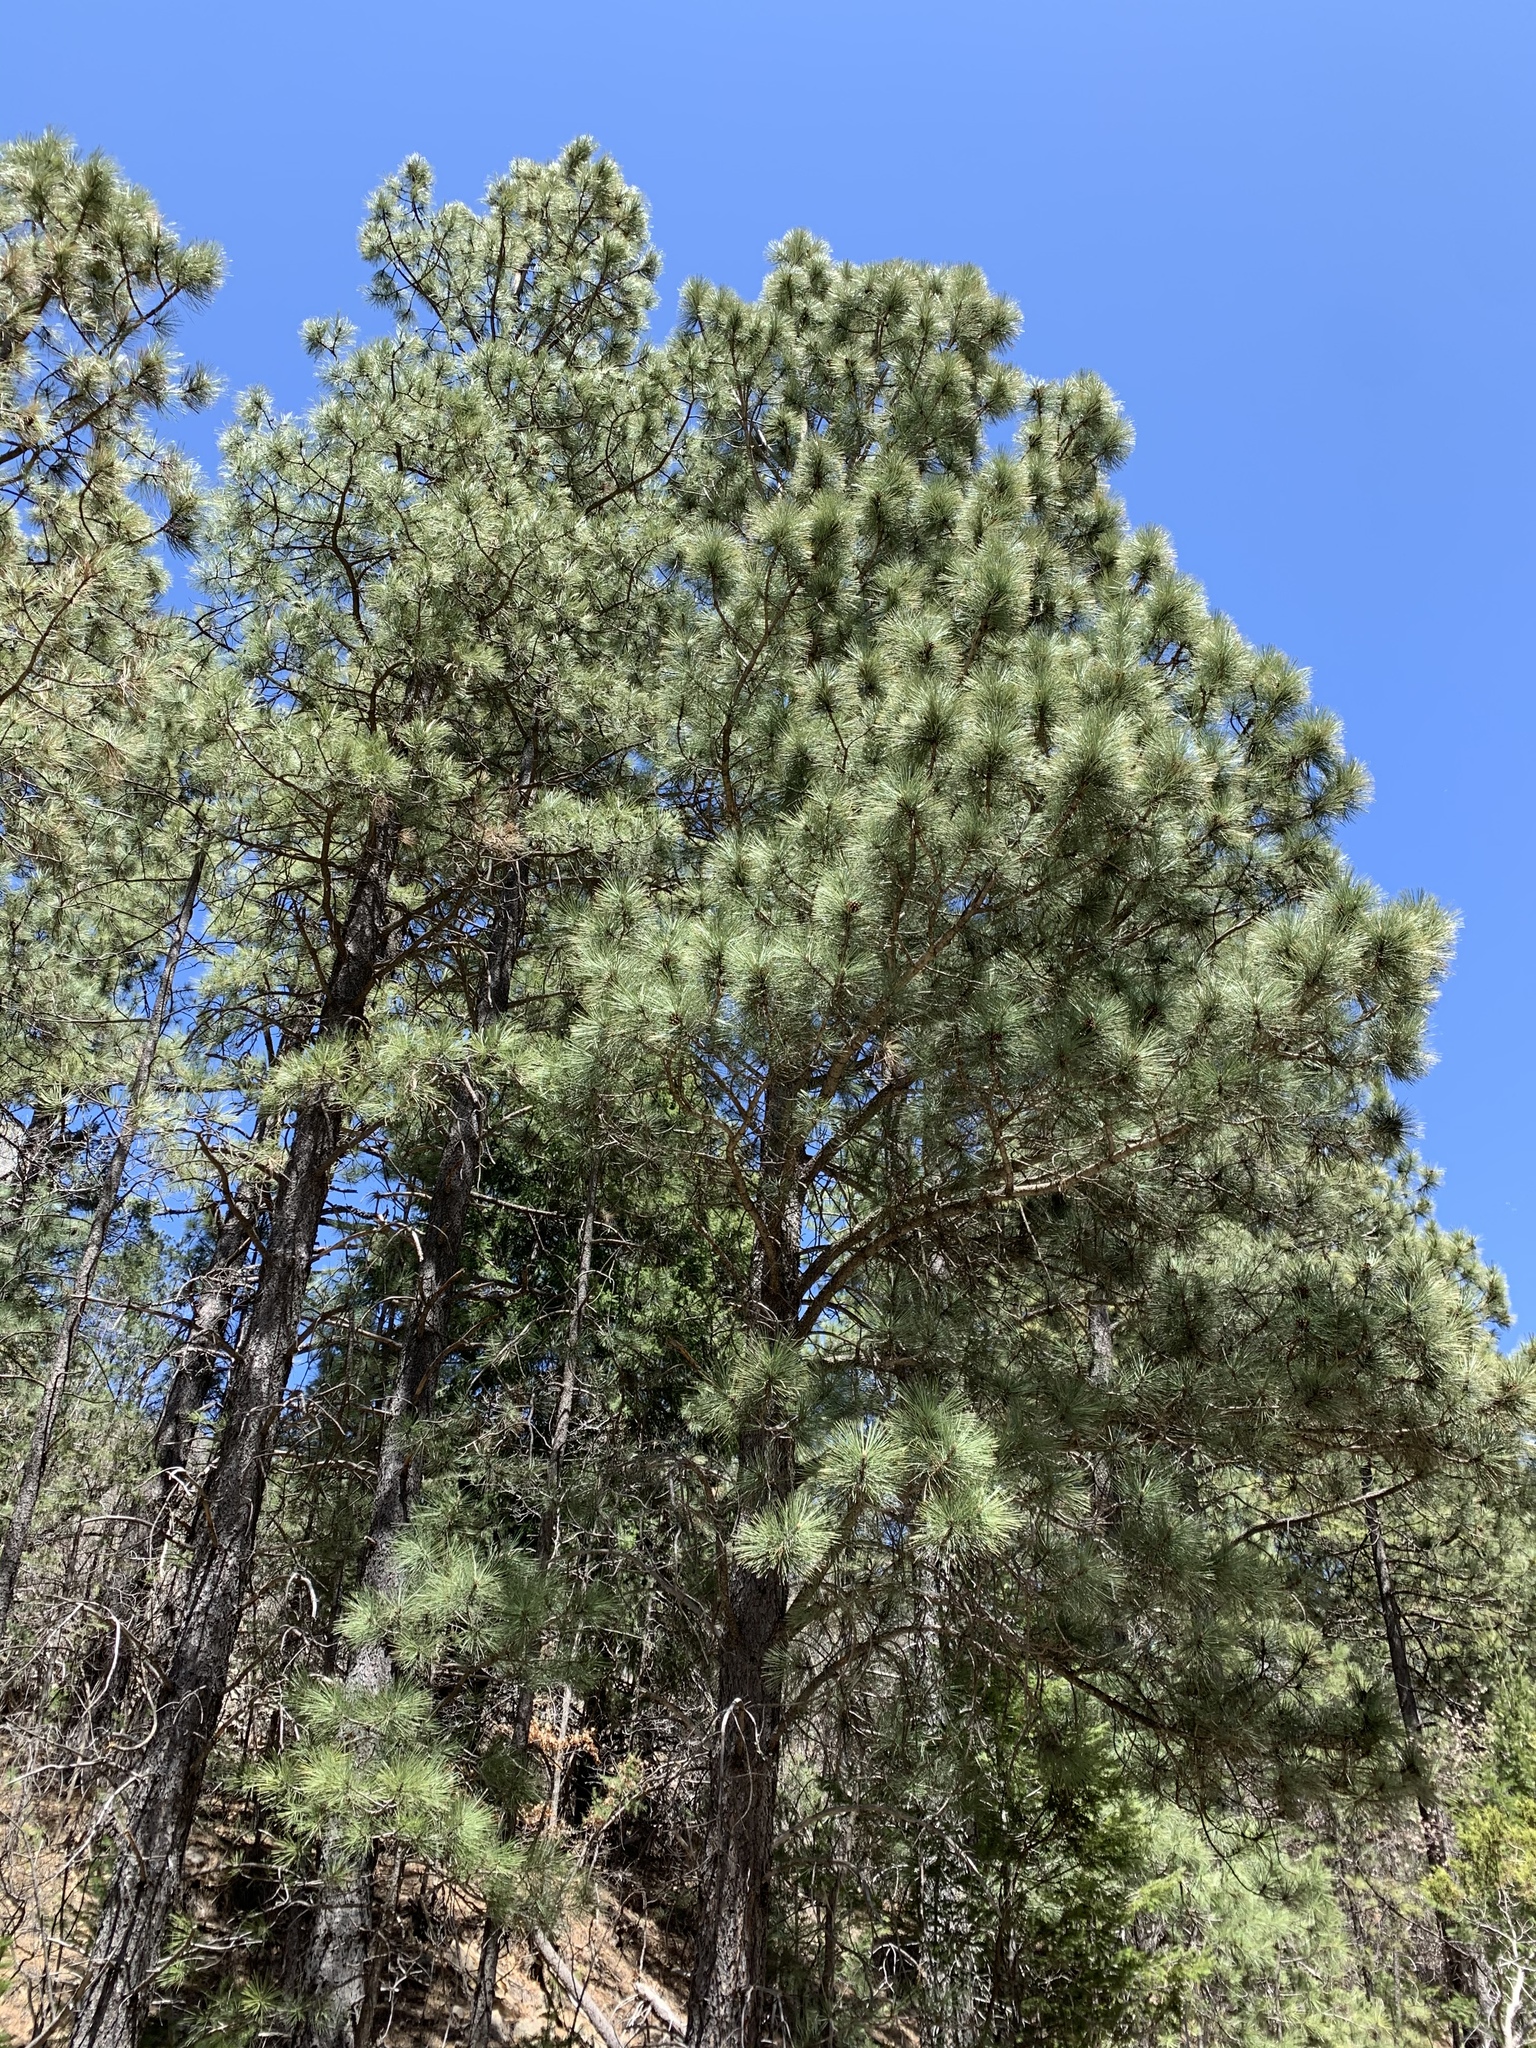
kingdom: Plantae
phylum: Tracheophyta
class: Pinopsida
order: Pinales
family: Pinaceae
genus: Pinus
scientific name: Pinus ponderosa
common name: Western yellow-pine
